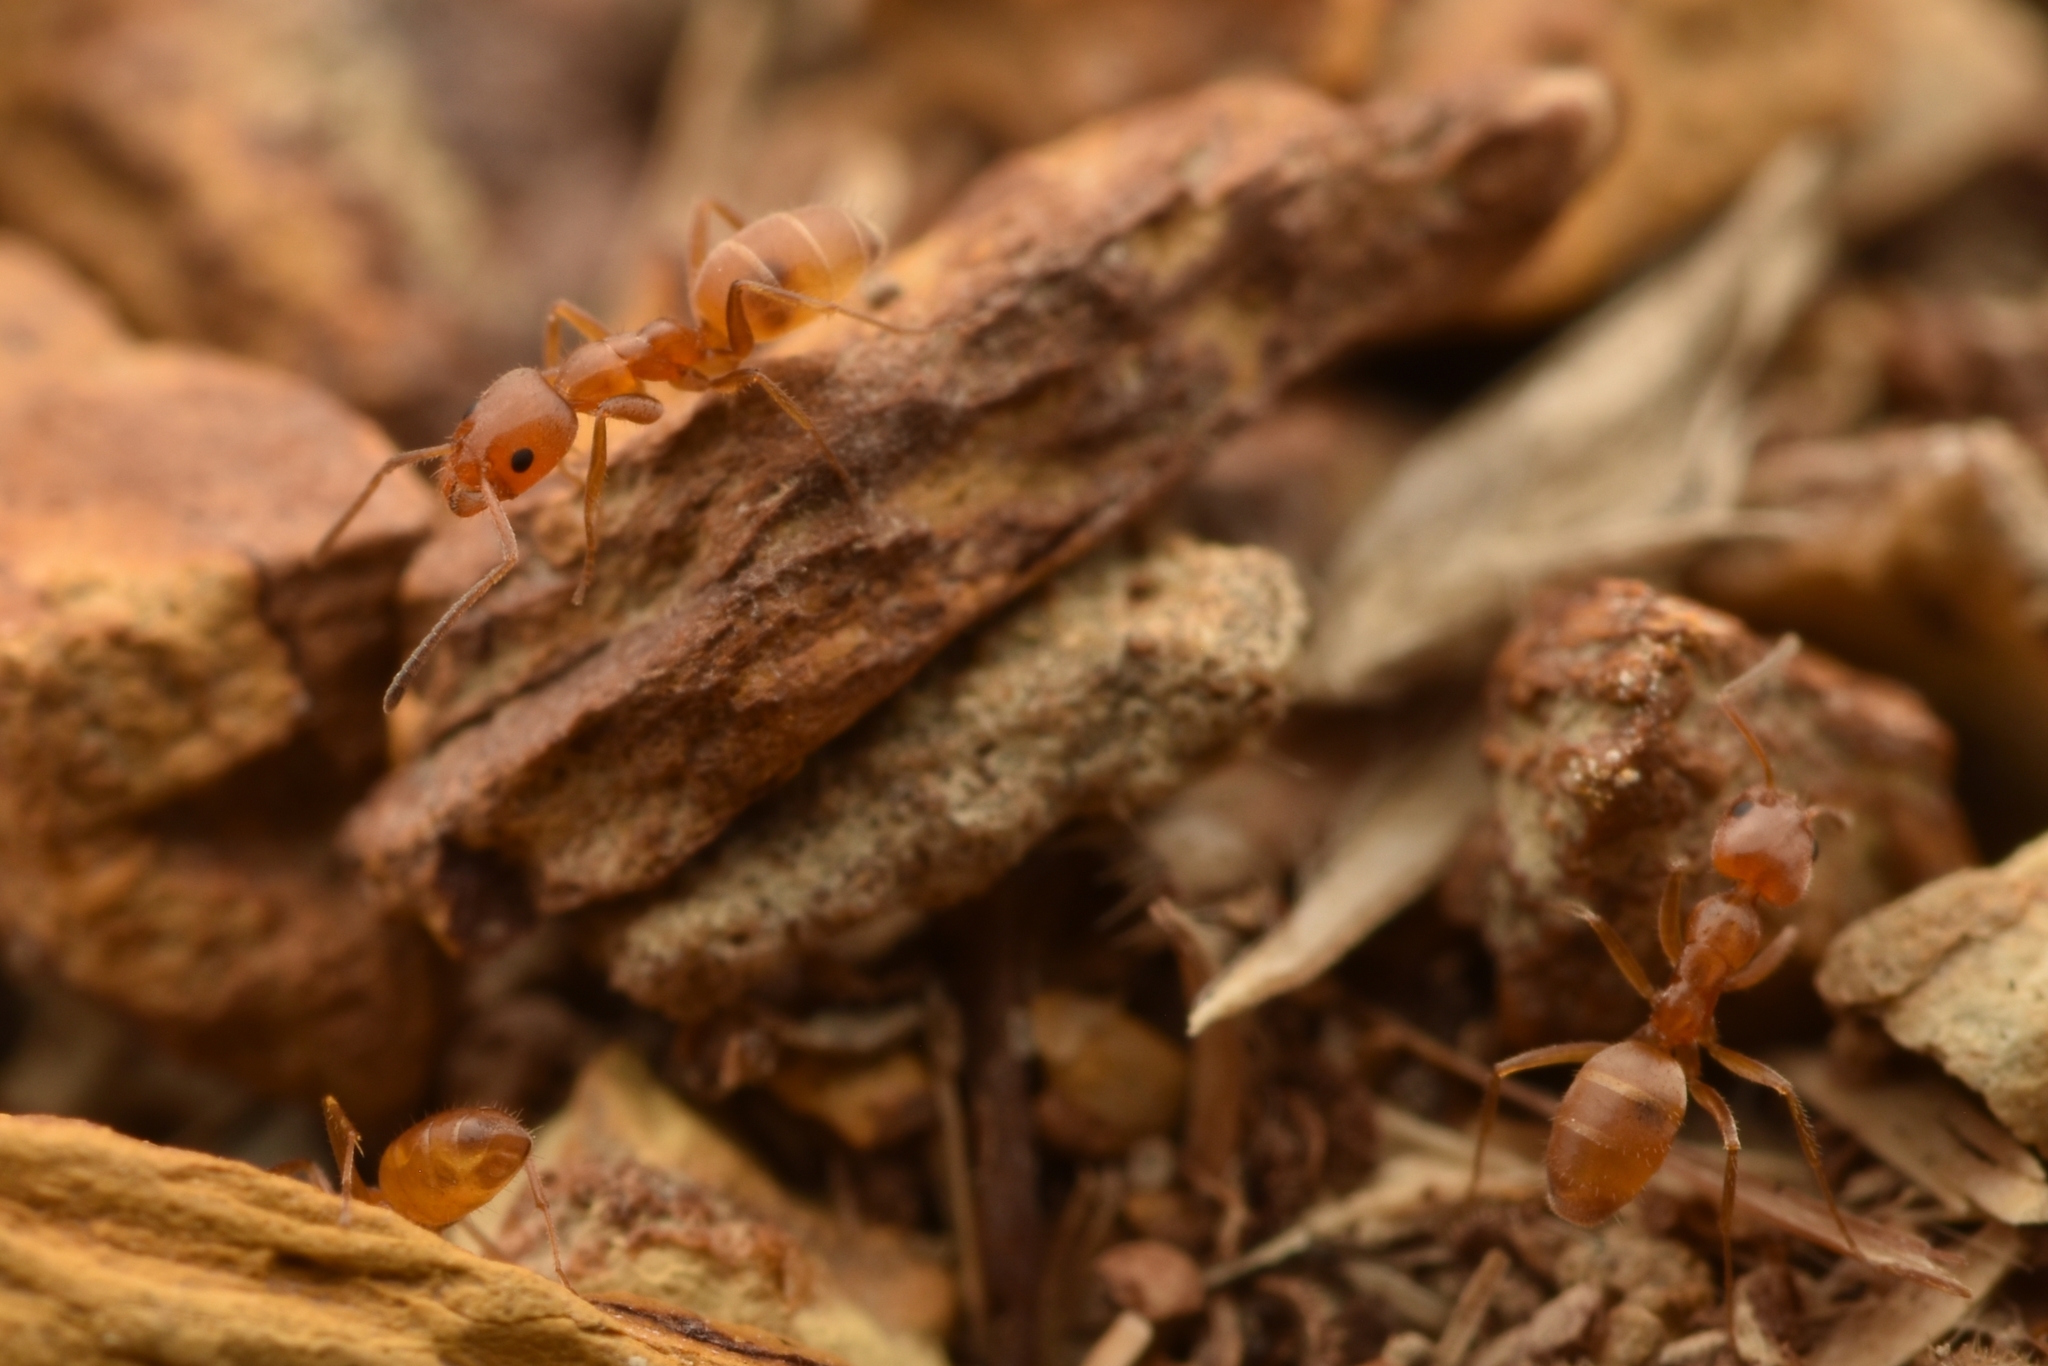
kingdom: Animalia
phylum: Arthropoda
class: Insecta
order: Hymenoptera
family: Formicidae
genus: Forelius
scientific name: Forelius mccooki
